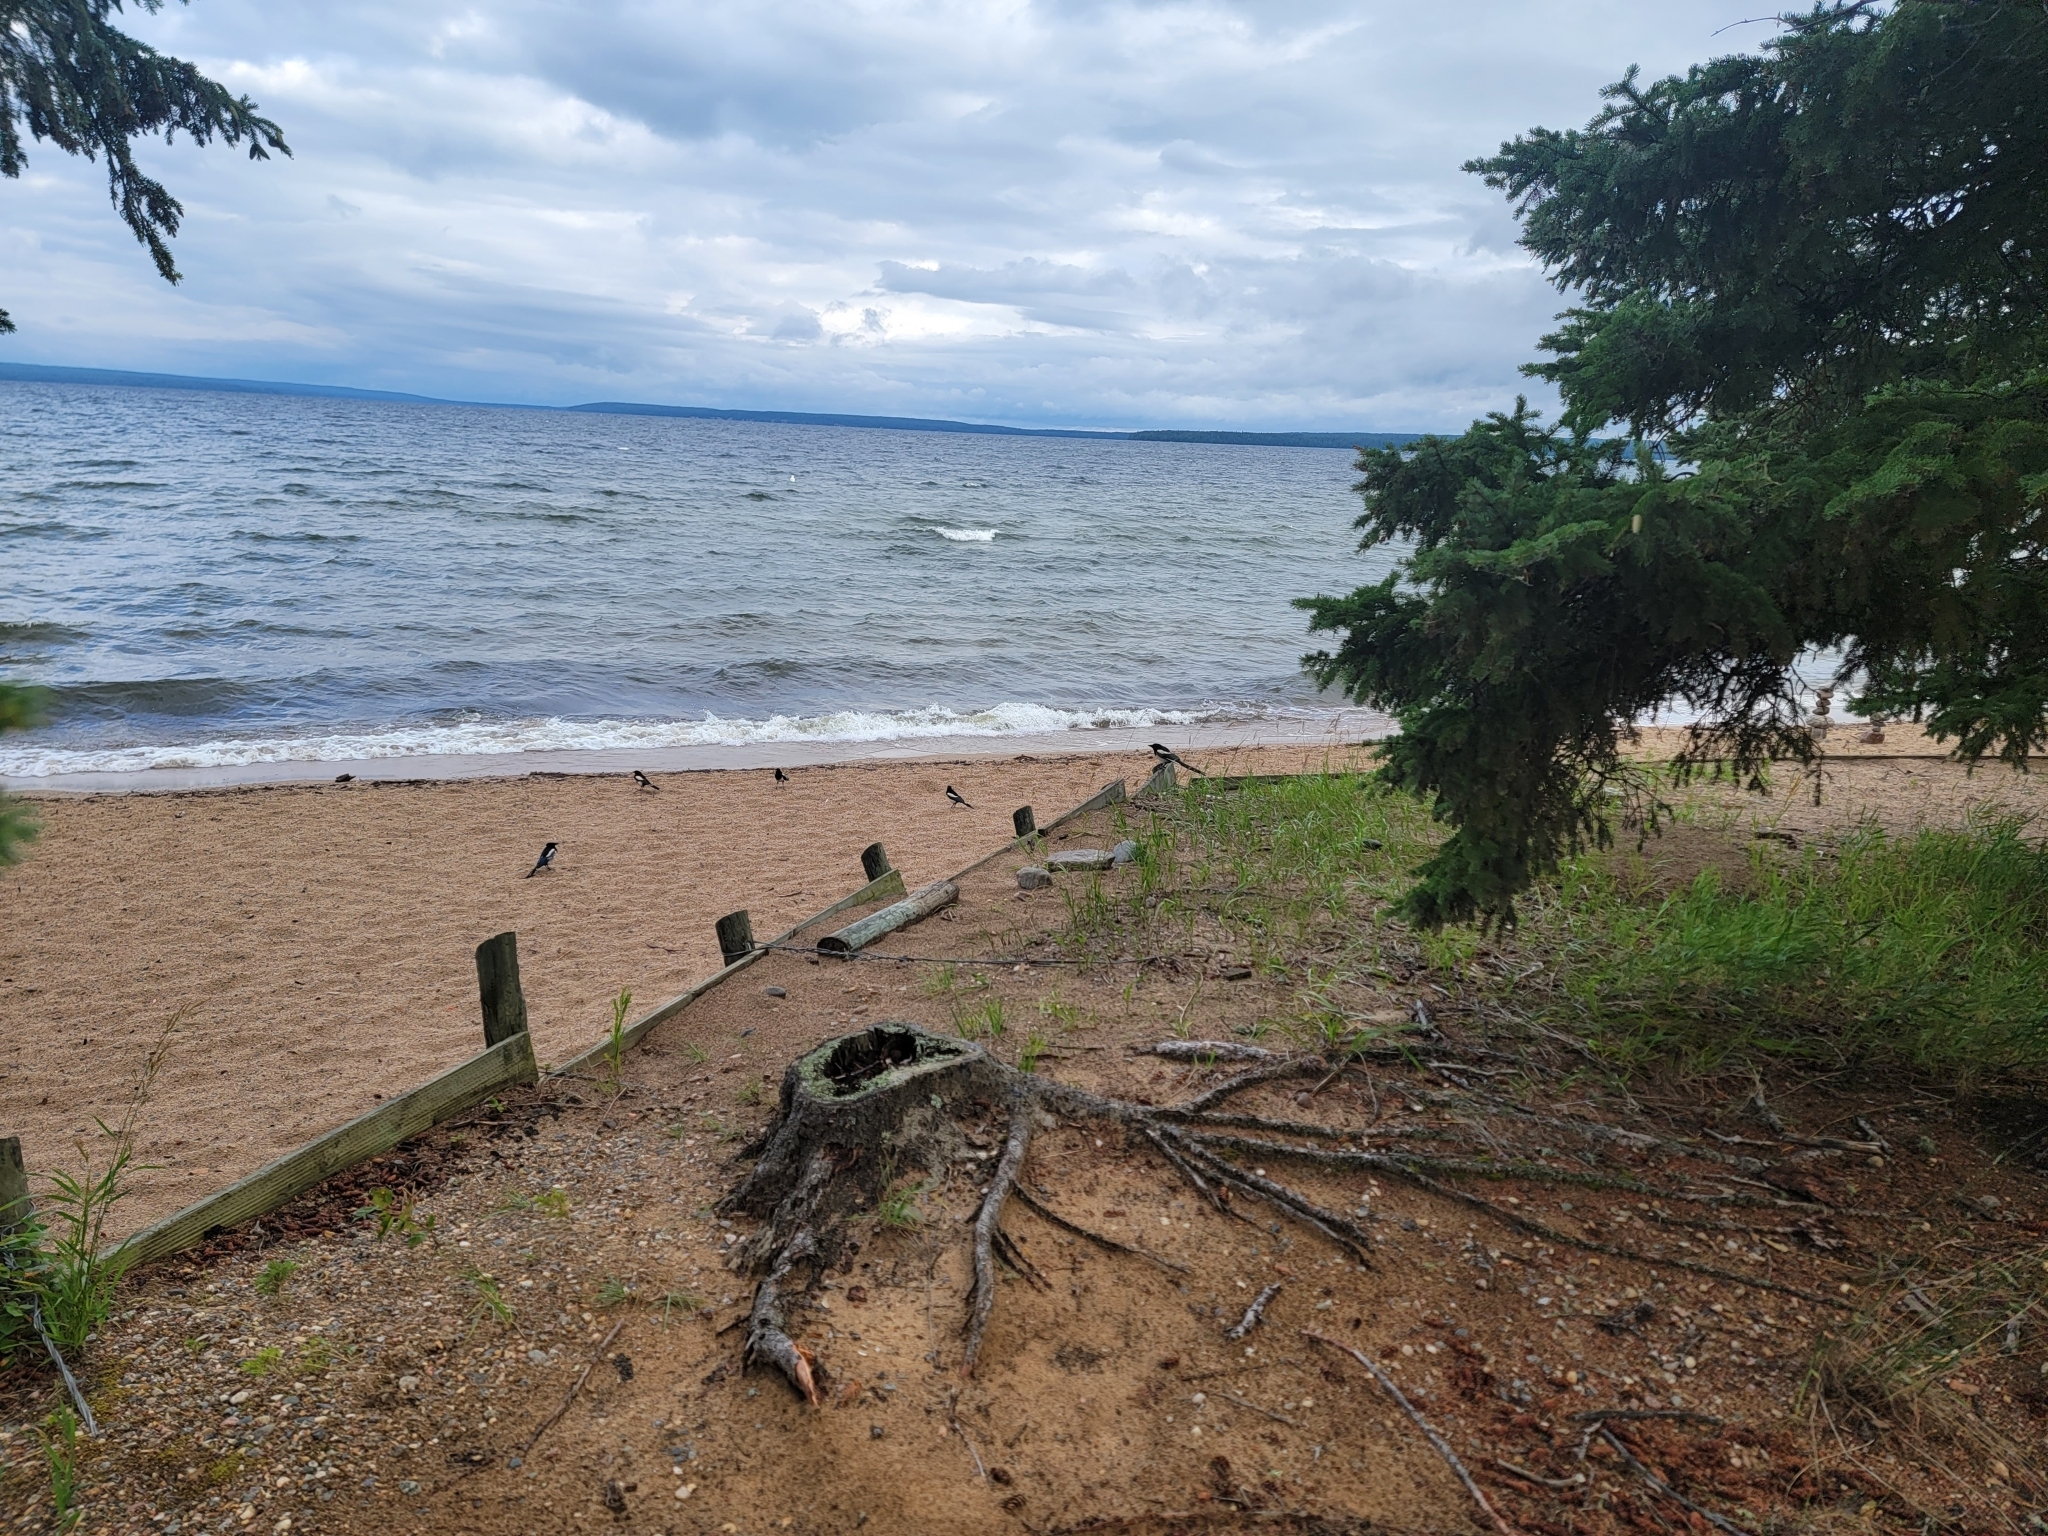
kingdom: Animalia
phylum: Chordata
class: Aves
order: Passeriformes
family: Corvidae
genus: Pica
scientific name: Pica hudsonia
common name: Black-billed magpie
